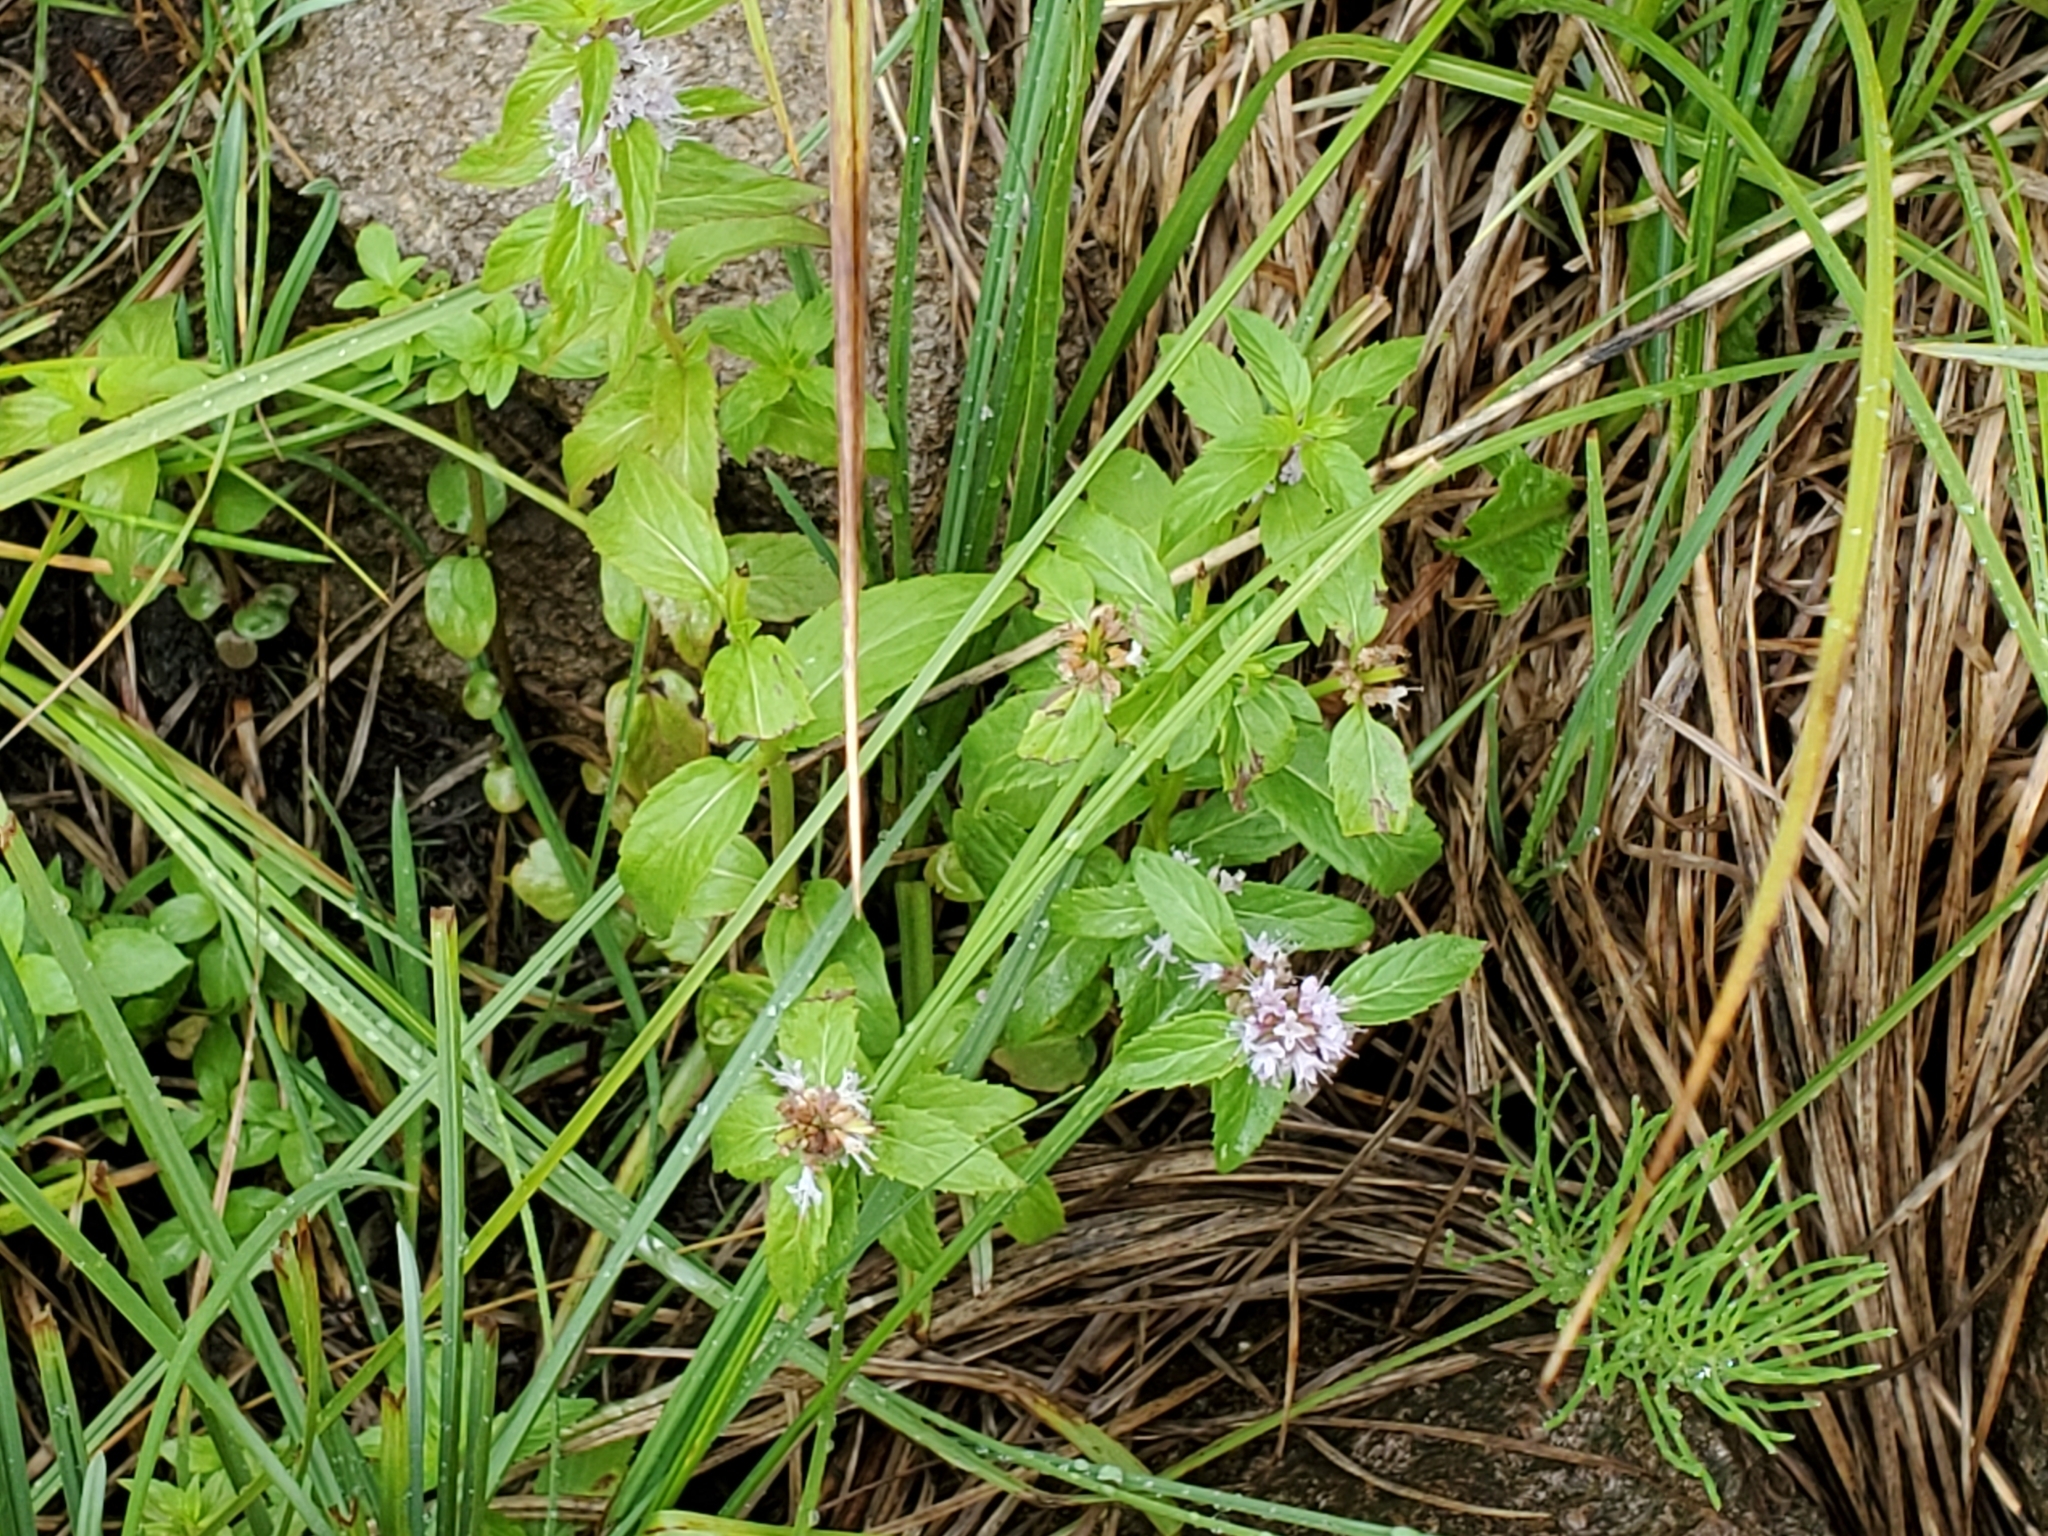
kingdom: Plantae
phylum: Tracheophyta
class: Magnoliopsida
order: Lamiales
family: Lamiaceae
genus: Mentha
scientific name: Mentha canadensis
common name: American corn mint
